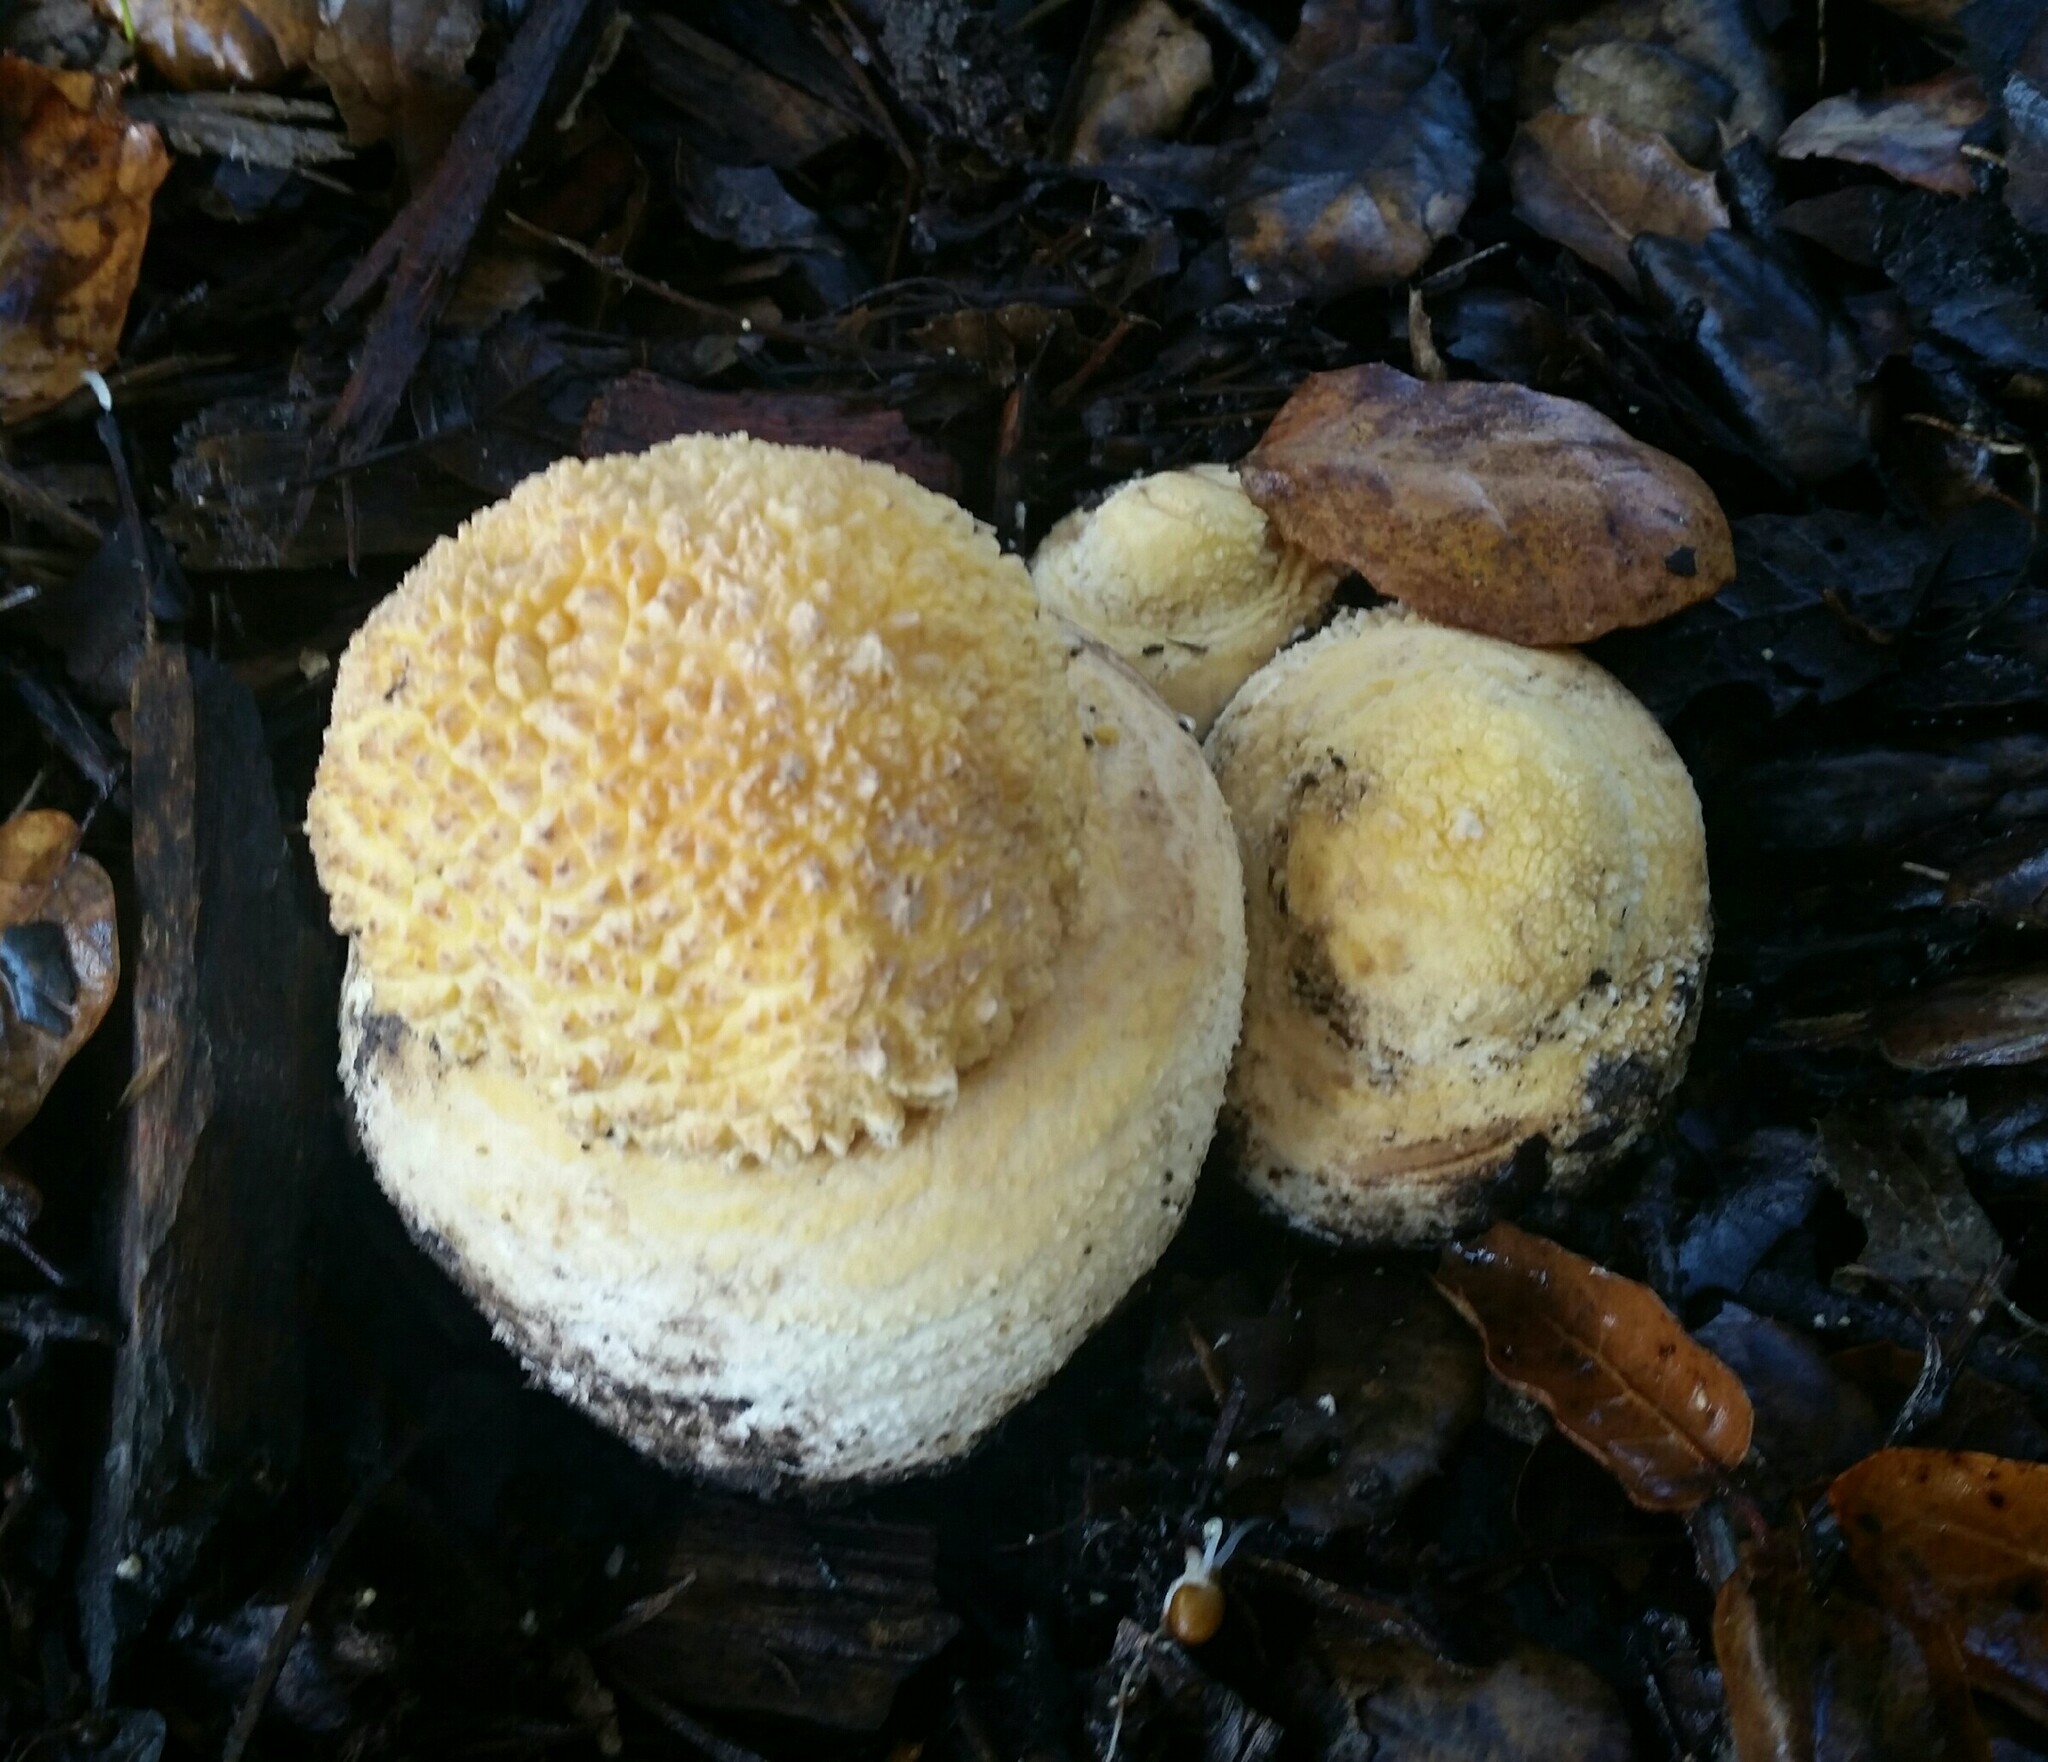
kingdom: Fungi
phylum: Basidiomycota
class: Agaricomycetes
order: Agaricales
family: Amanitaceae
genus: Amanita
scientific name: Amanita muscaria
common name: Fly agaric
